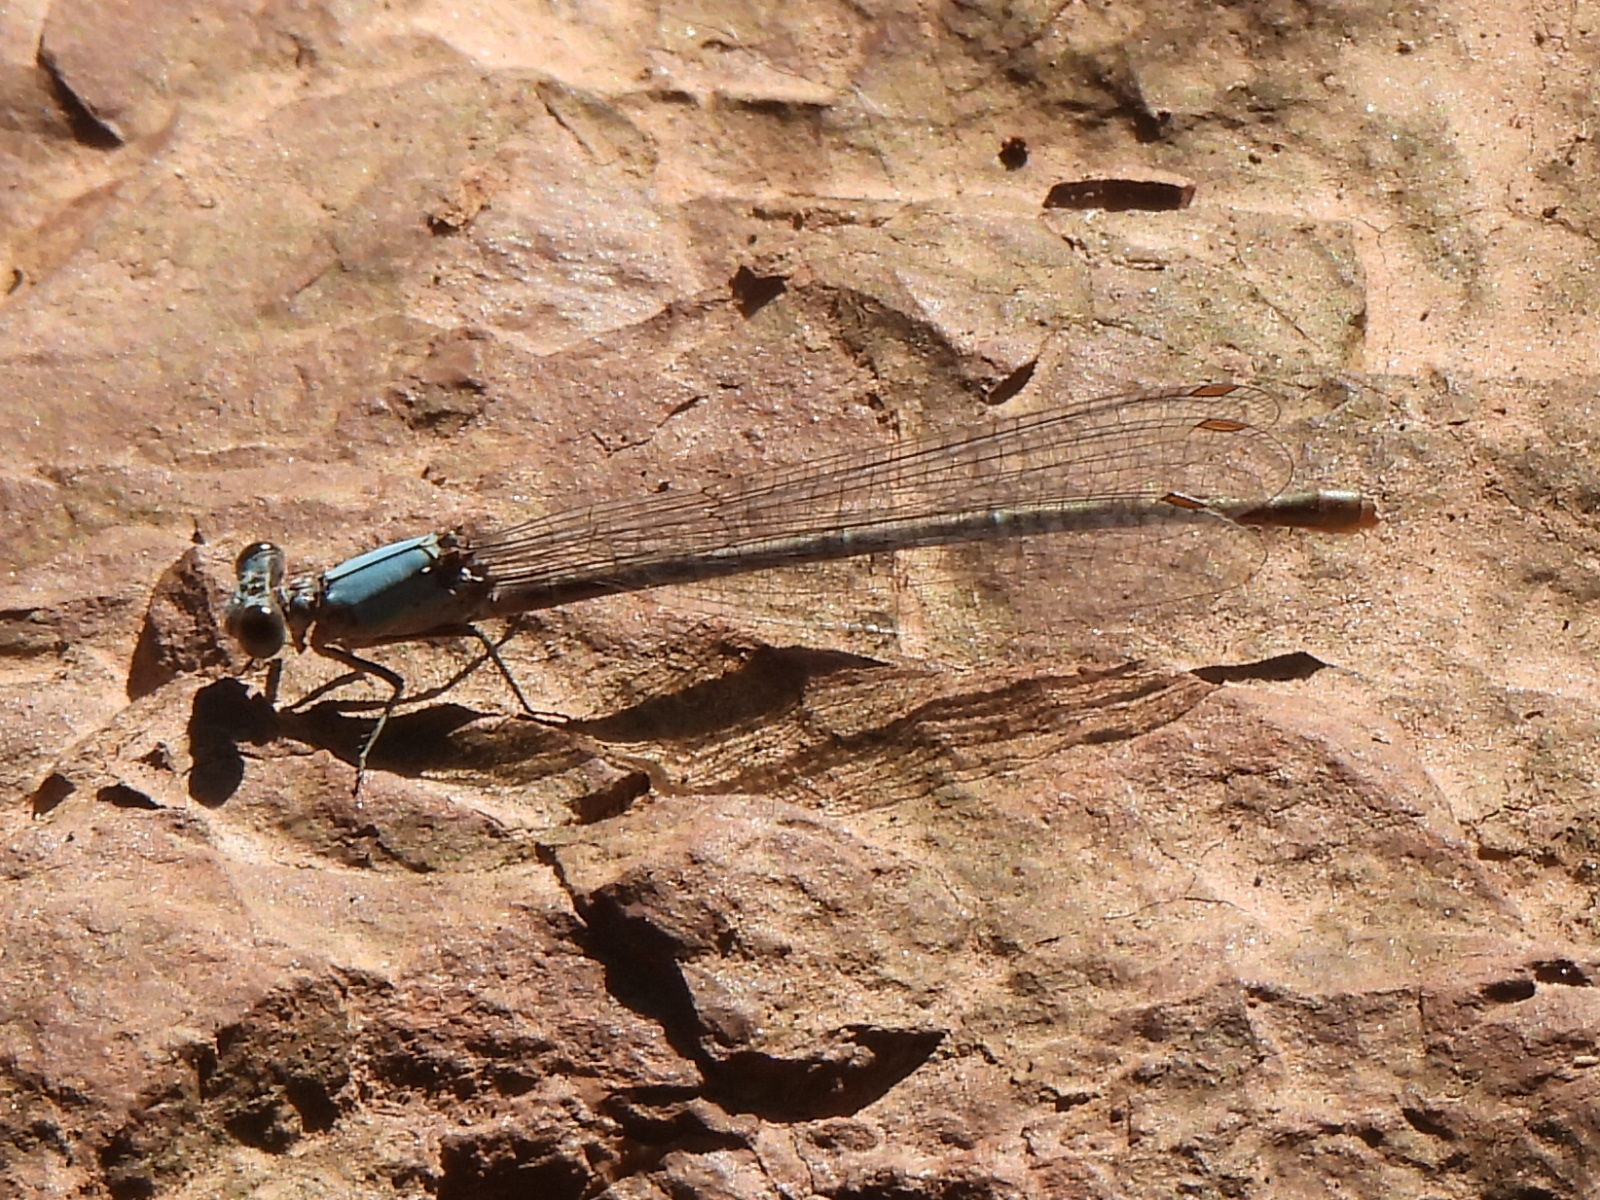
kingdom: Animalia
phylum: Arthropoda
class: Insecta
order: Odonata
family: Coenagrionidae
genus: Argia
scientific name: Argia moesta
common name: Powdered dancer
